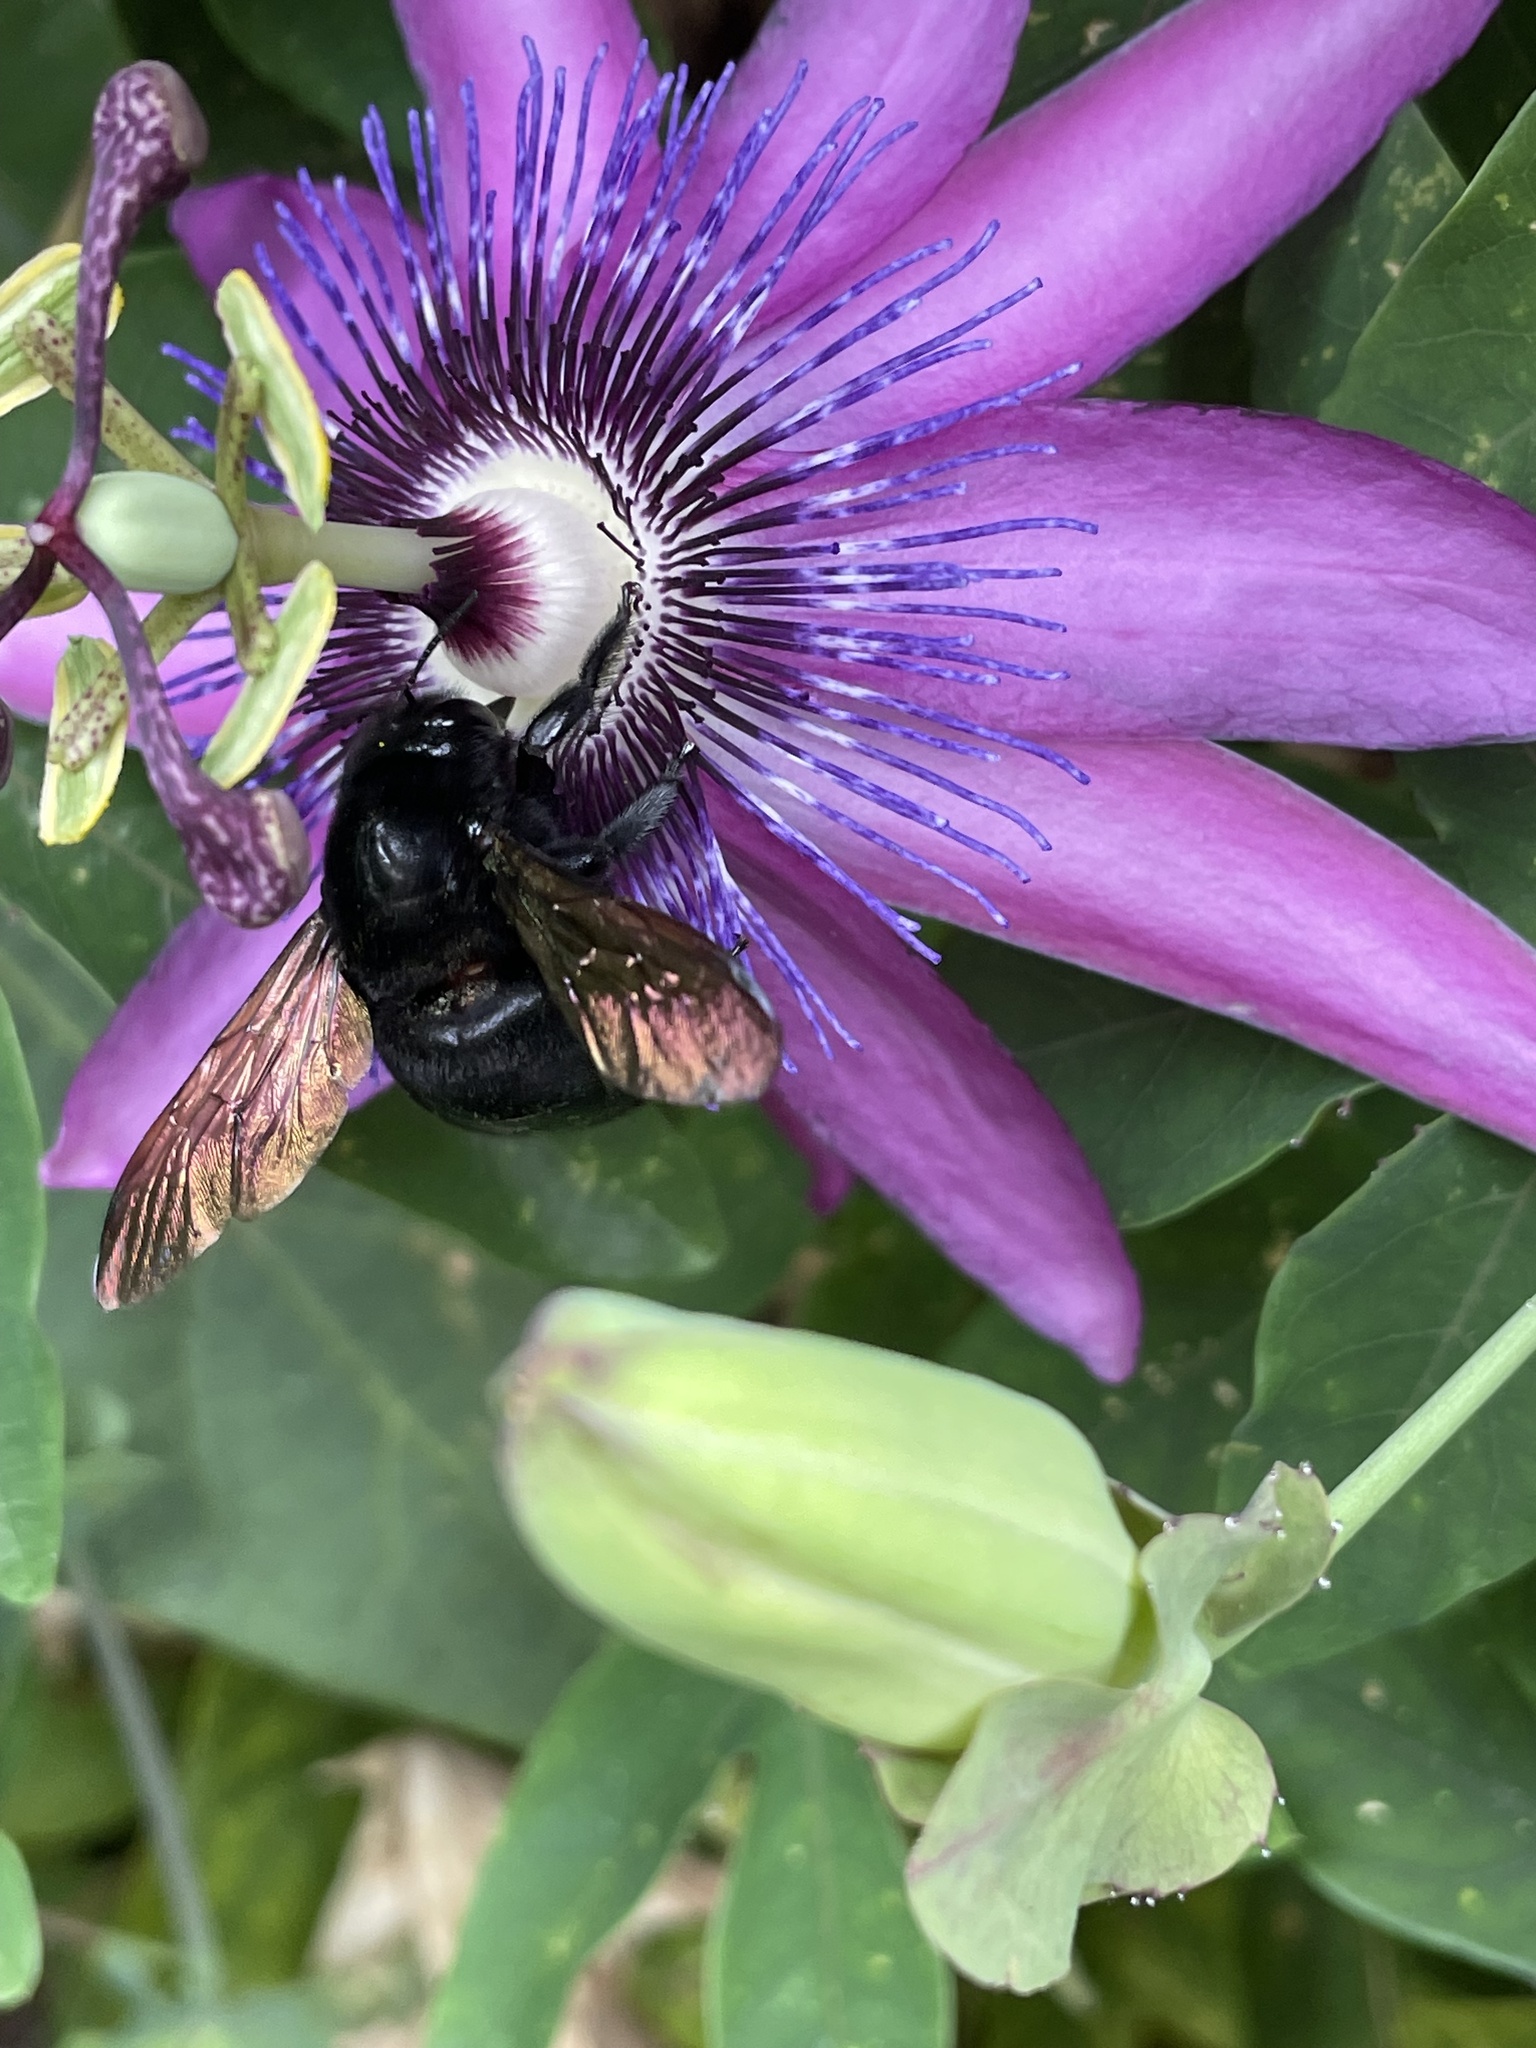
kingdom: Animalia
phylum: Arthropoda
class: Insecta
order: Hymenoptera
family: Apidae
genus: Xylocopa
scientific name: Xylocopa sonorina
